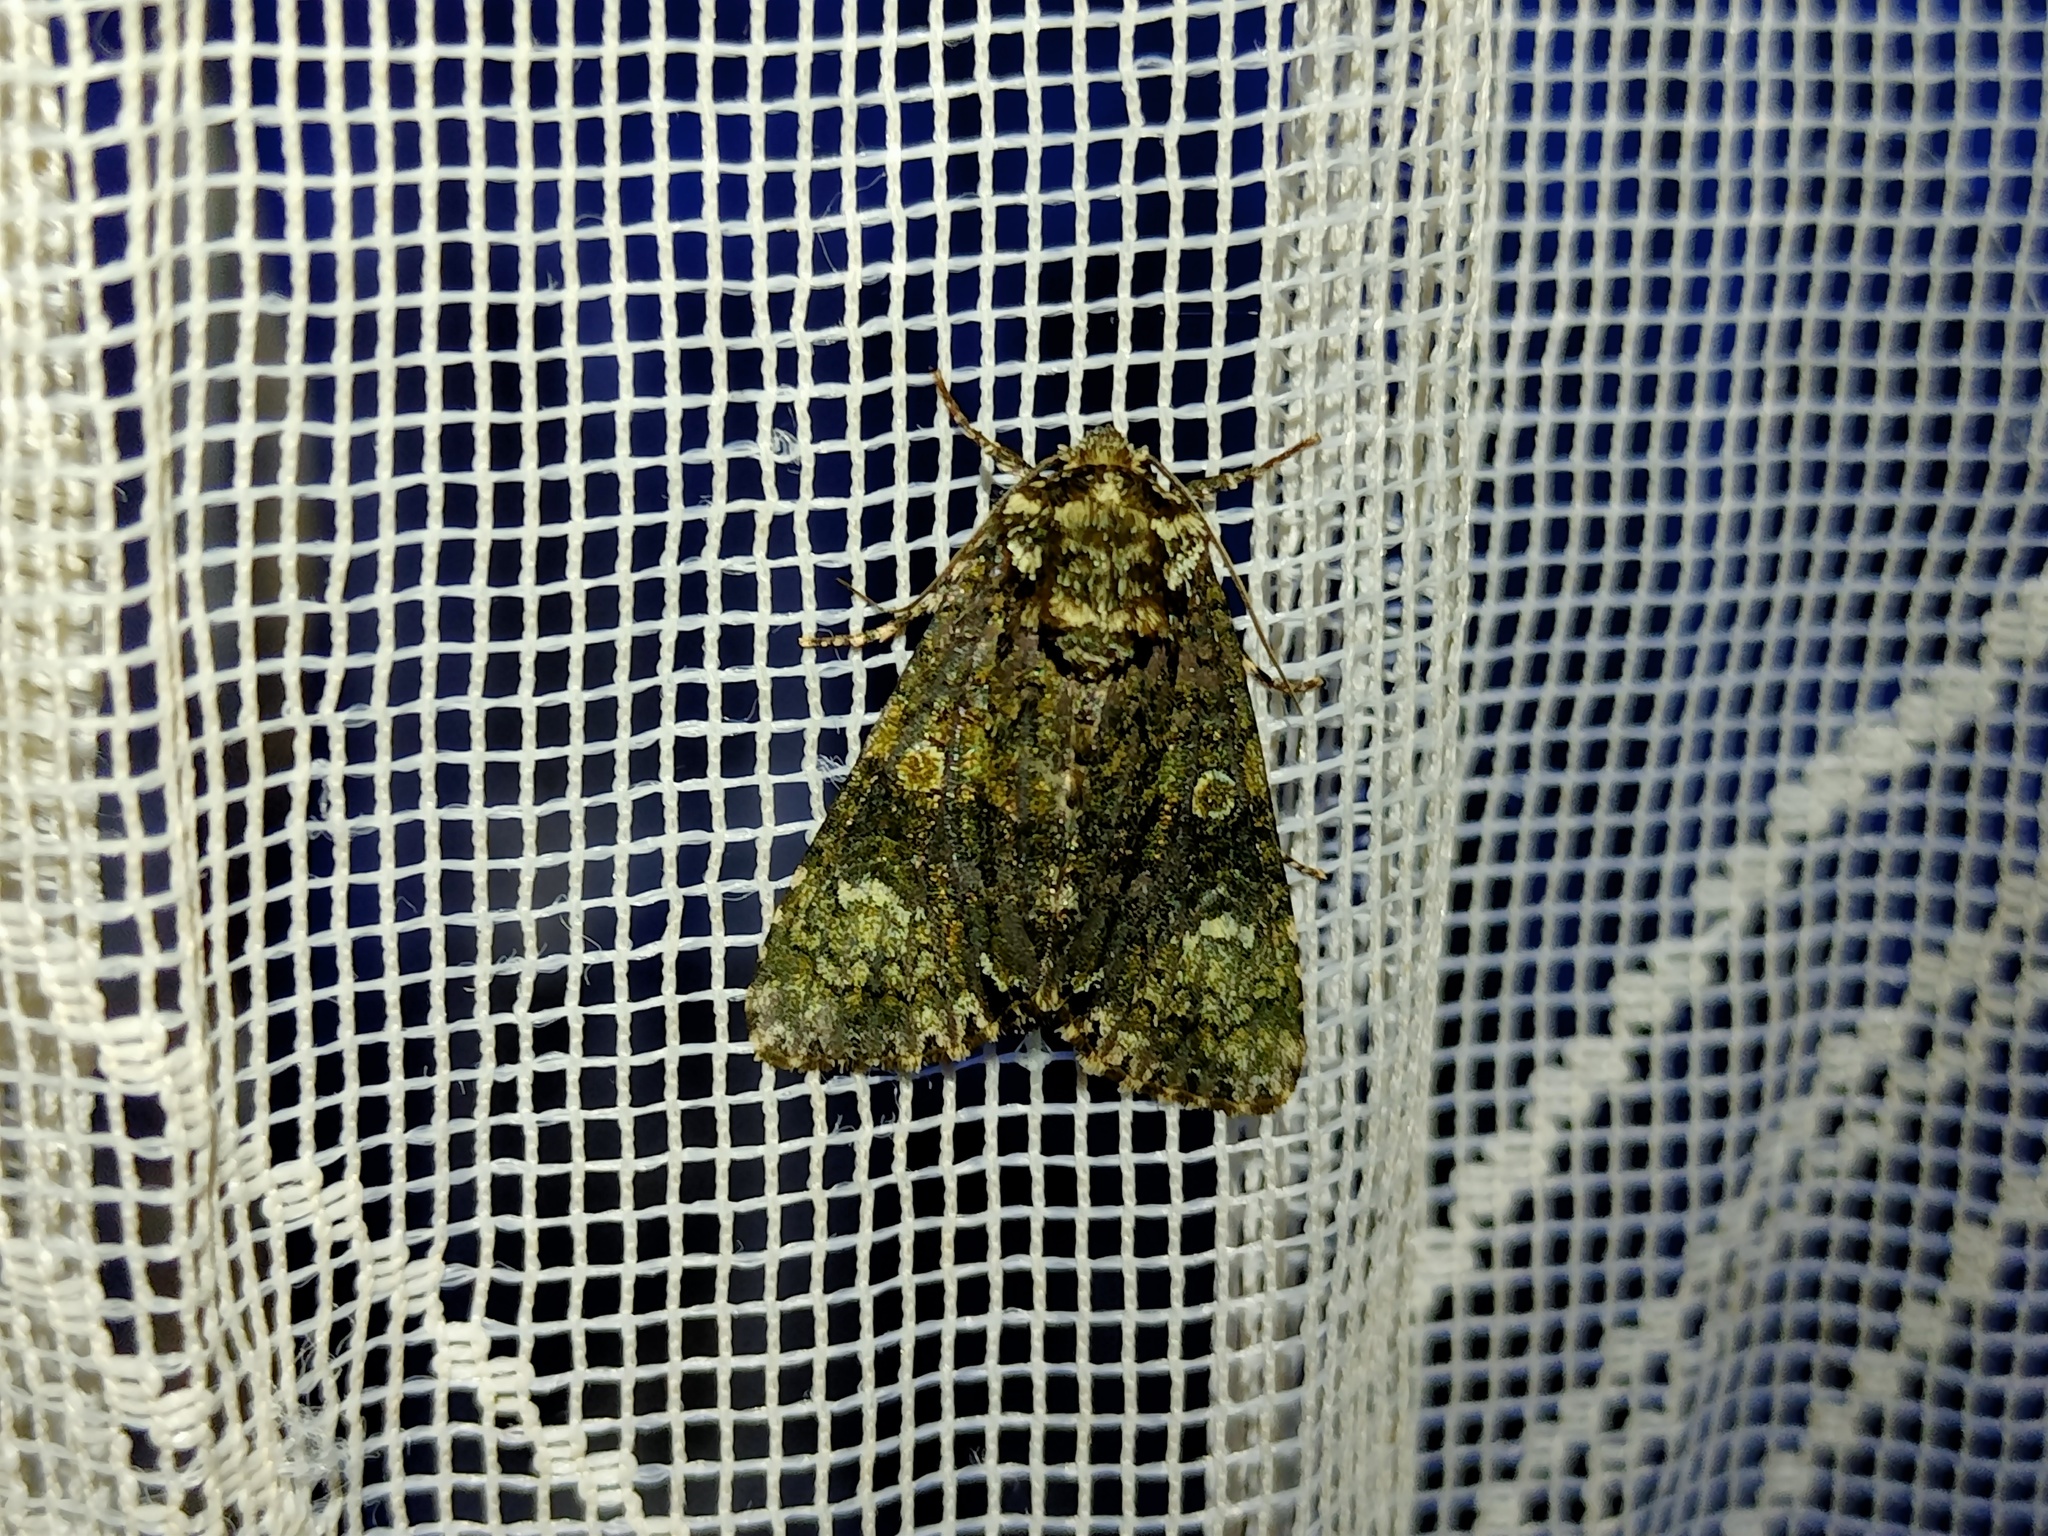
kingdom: Animalia
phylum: Arthropoda
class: Insecta
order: Lepidoptera
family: Noctuidae
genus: Craniophora
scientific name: Craniophora ligustri
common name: Coronet
